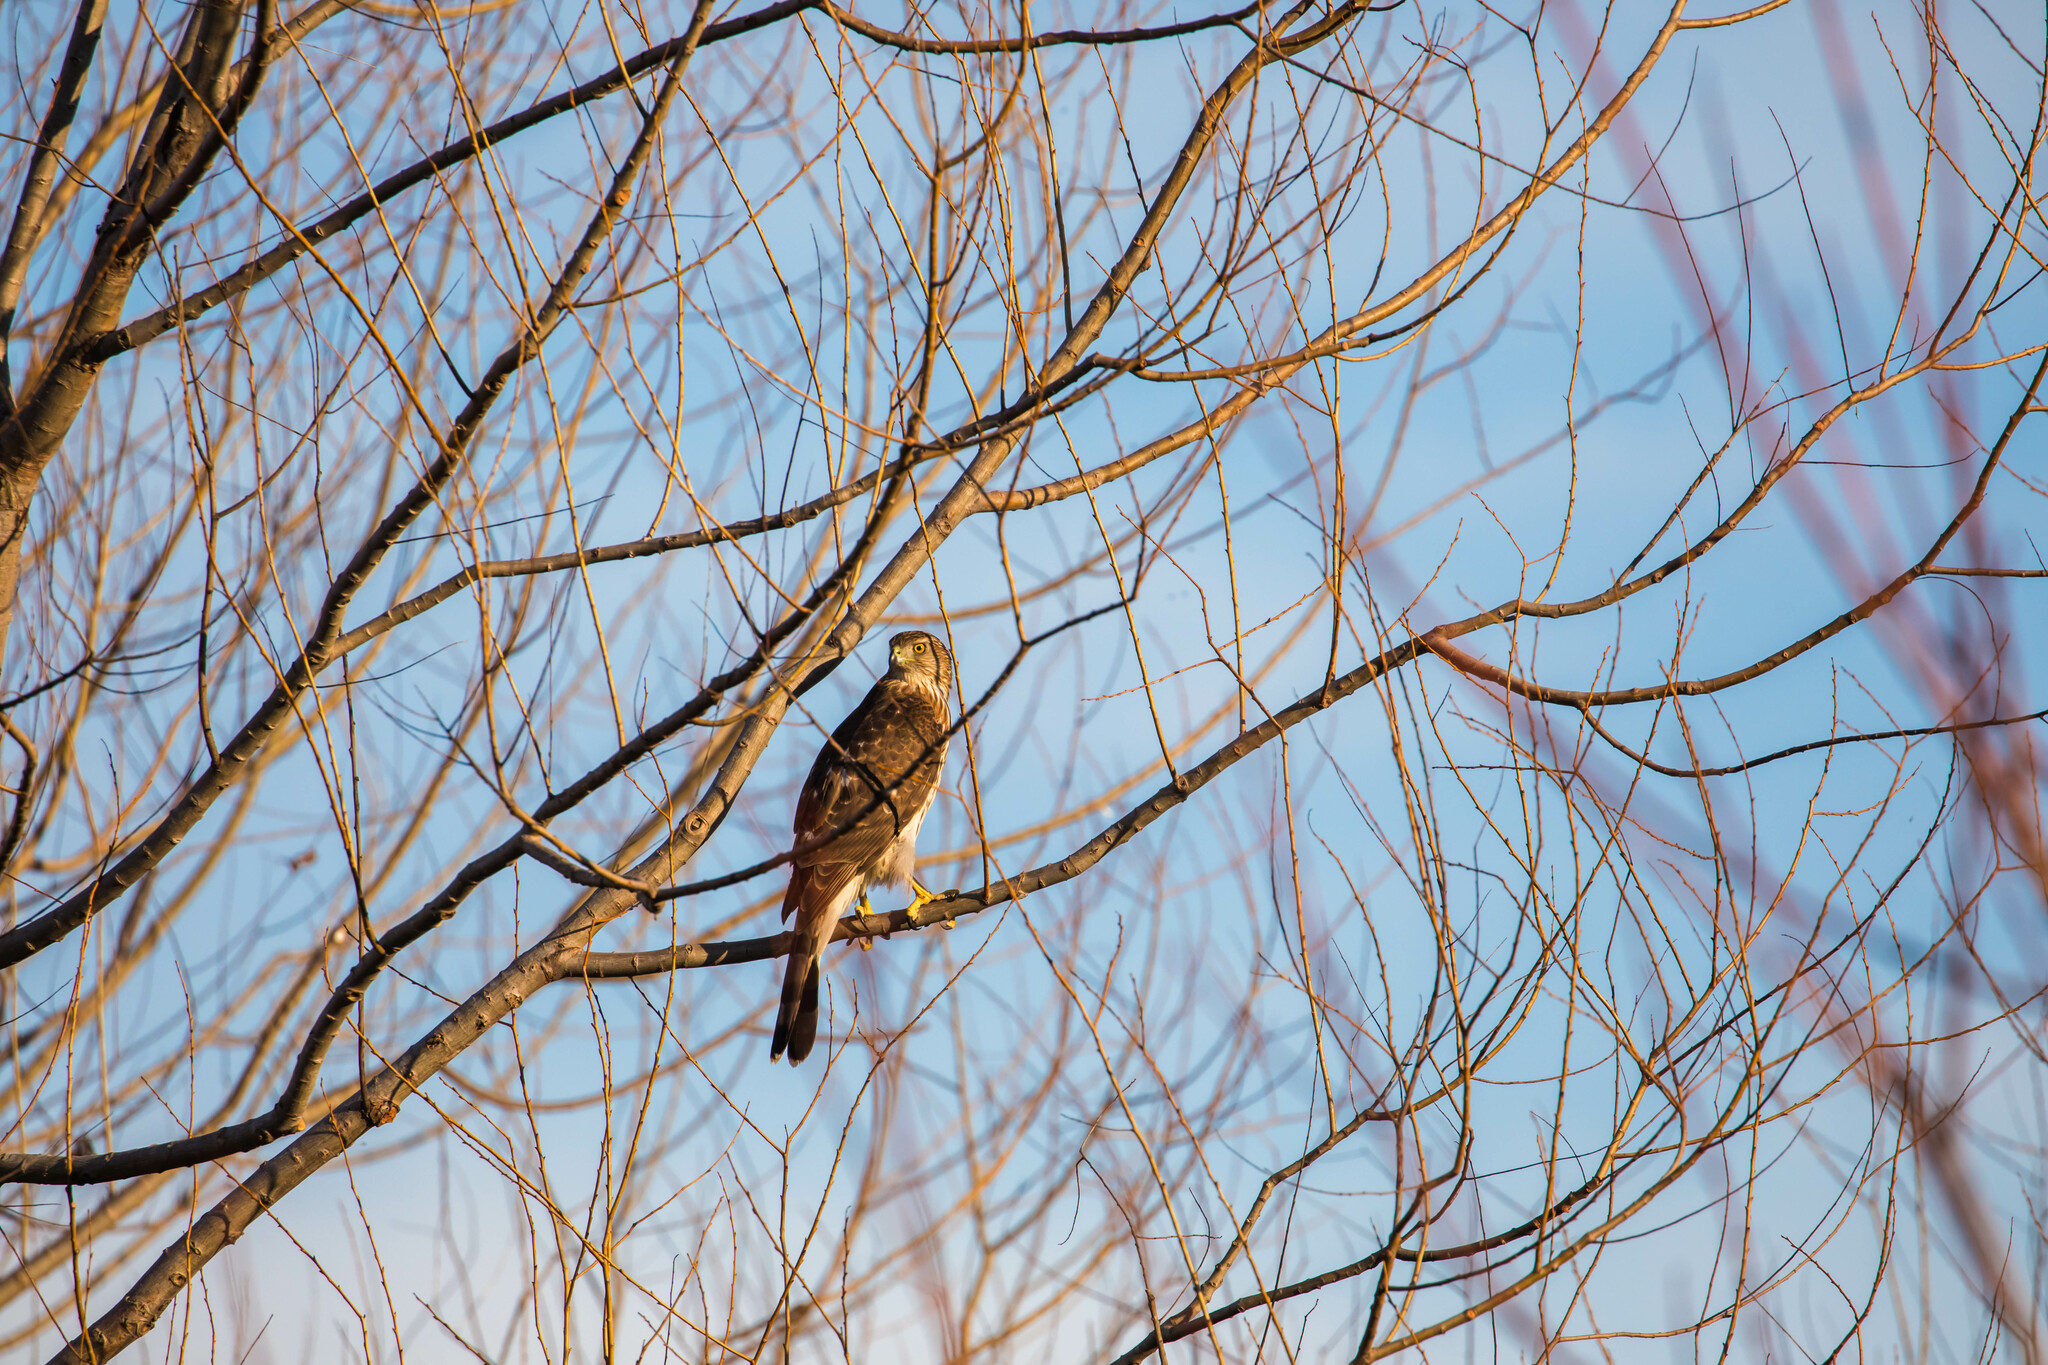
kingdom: Animalia
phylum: Chordata
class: Aves
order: Accipitriformes
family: Accipitridae
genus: Accipiter
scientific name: Accipiter cooperii
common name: Cooper's hawk
